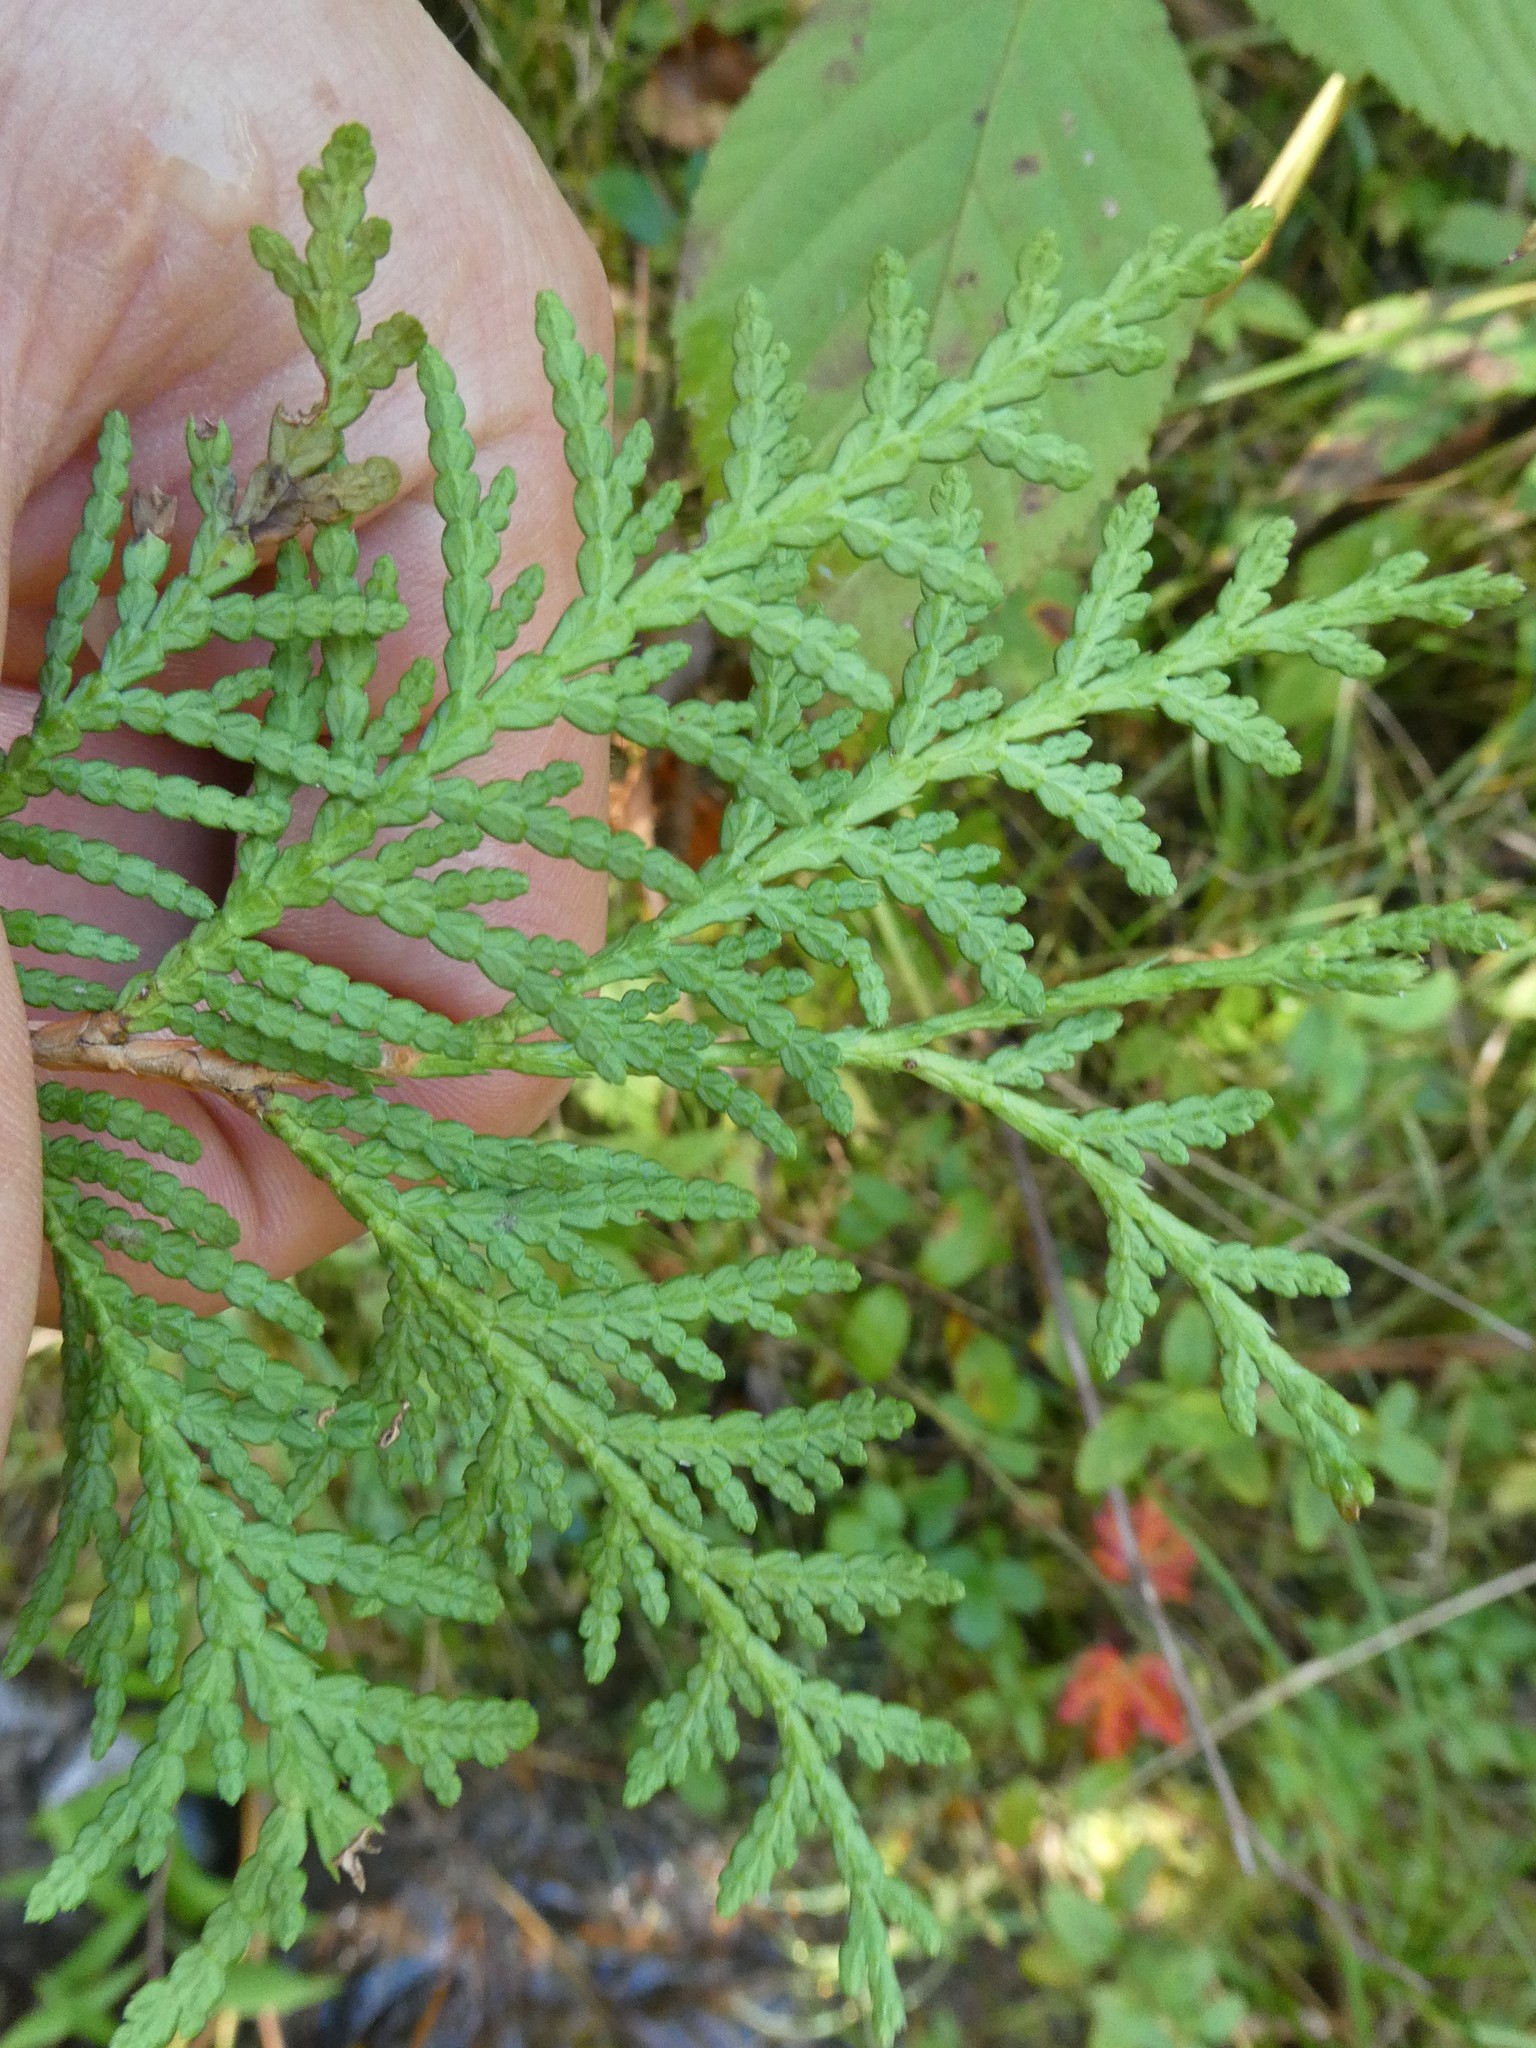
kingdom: Plantae
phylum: Tracheophyta
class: Pinopsida
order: Pinales
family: Cupressaceae
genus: Thuja
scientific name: Thuja occidentalis
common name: Northern white-cedar
